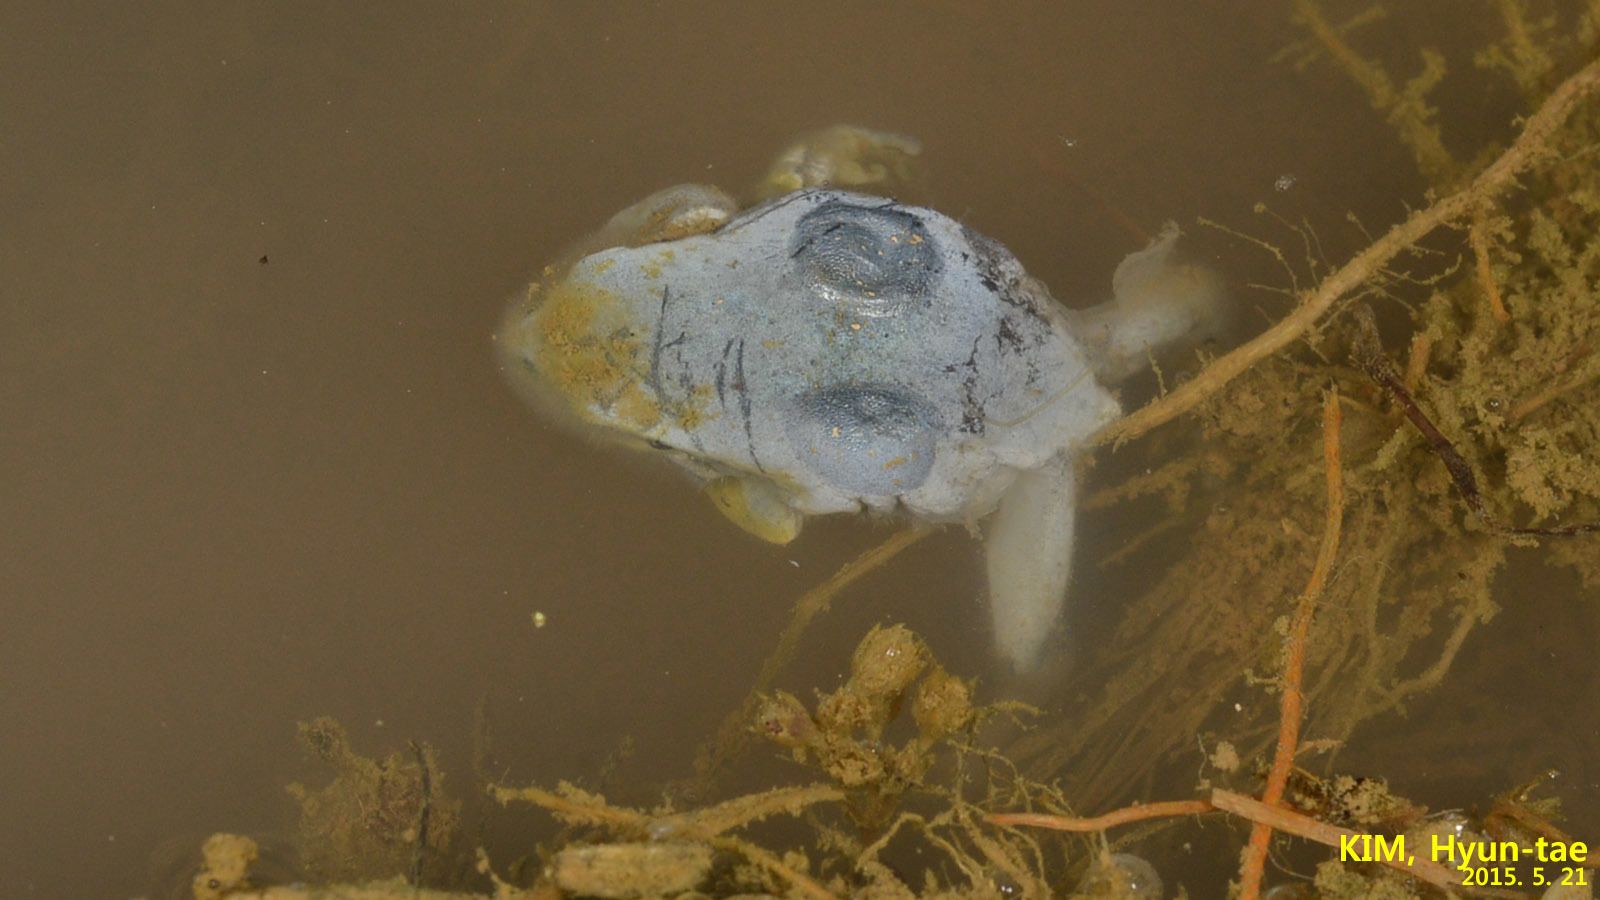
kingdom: Animalia
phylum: Chordata
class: Amphibia
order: Anura
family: Hylidae
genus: Dryophytes
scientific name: Dryophytes immaculatus
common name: North china treefrog
